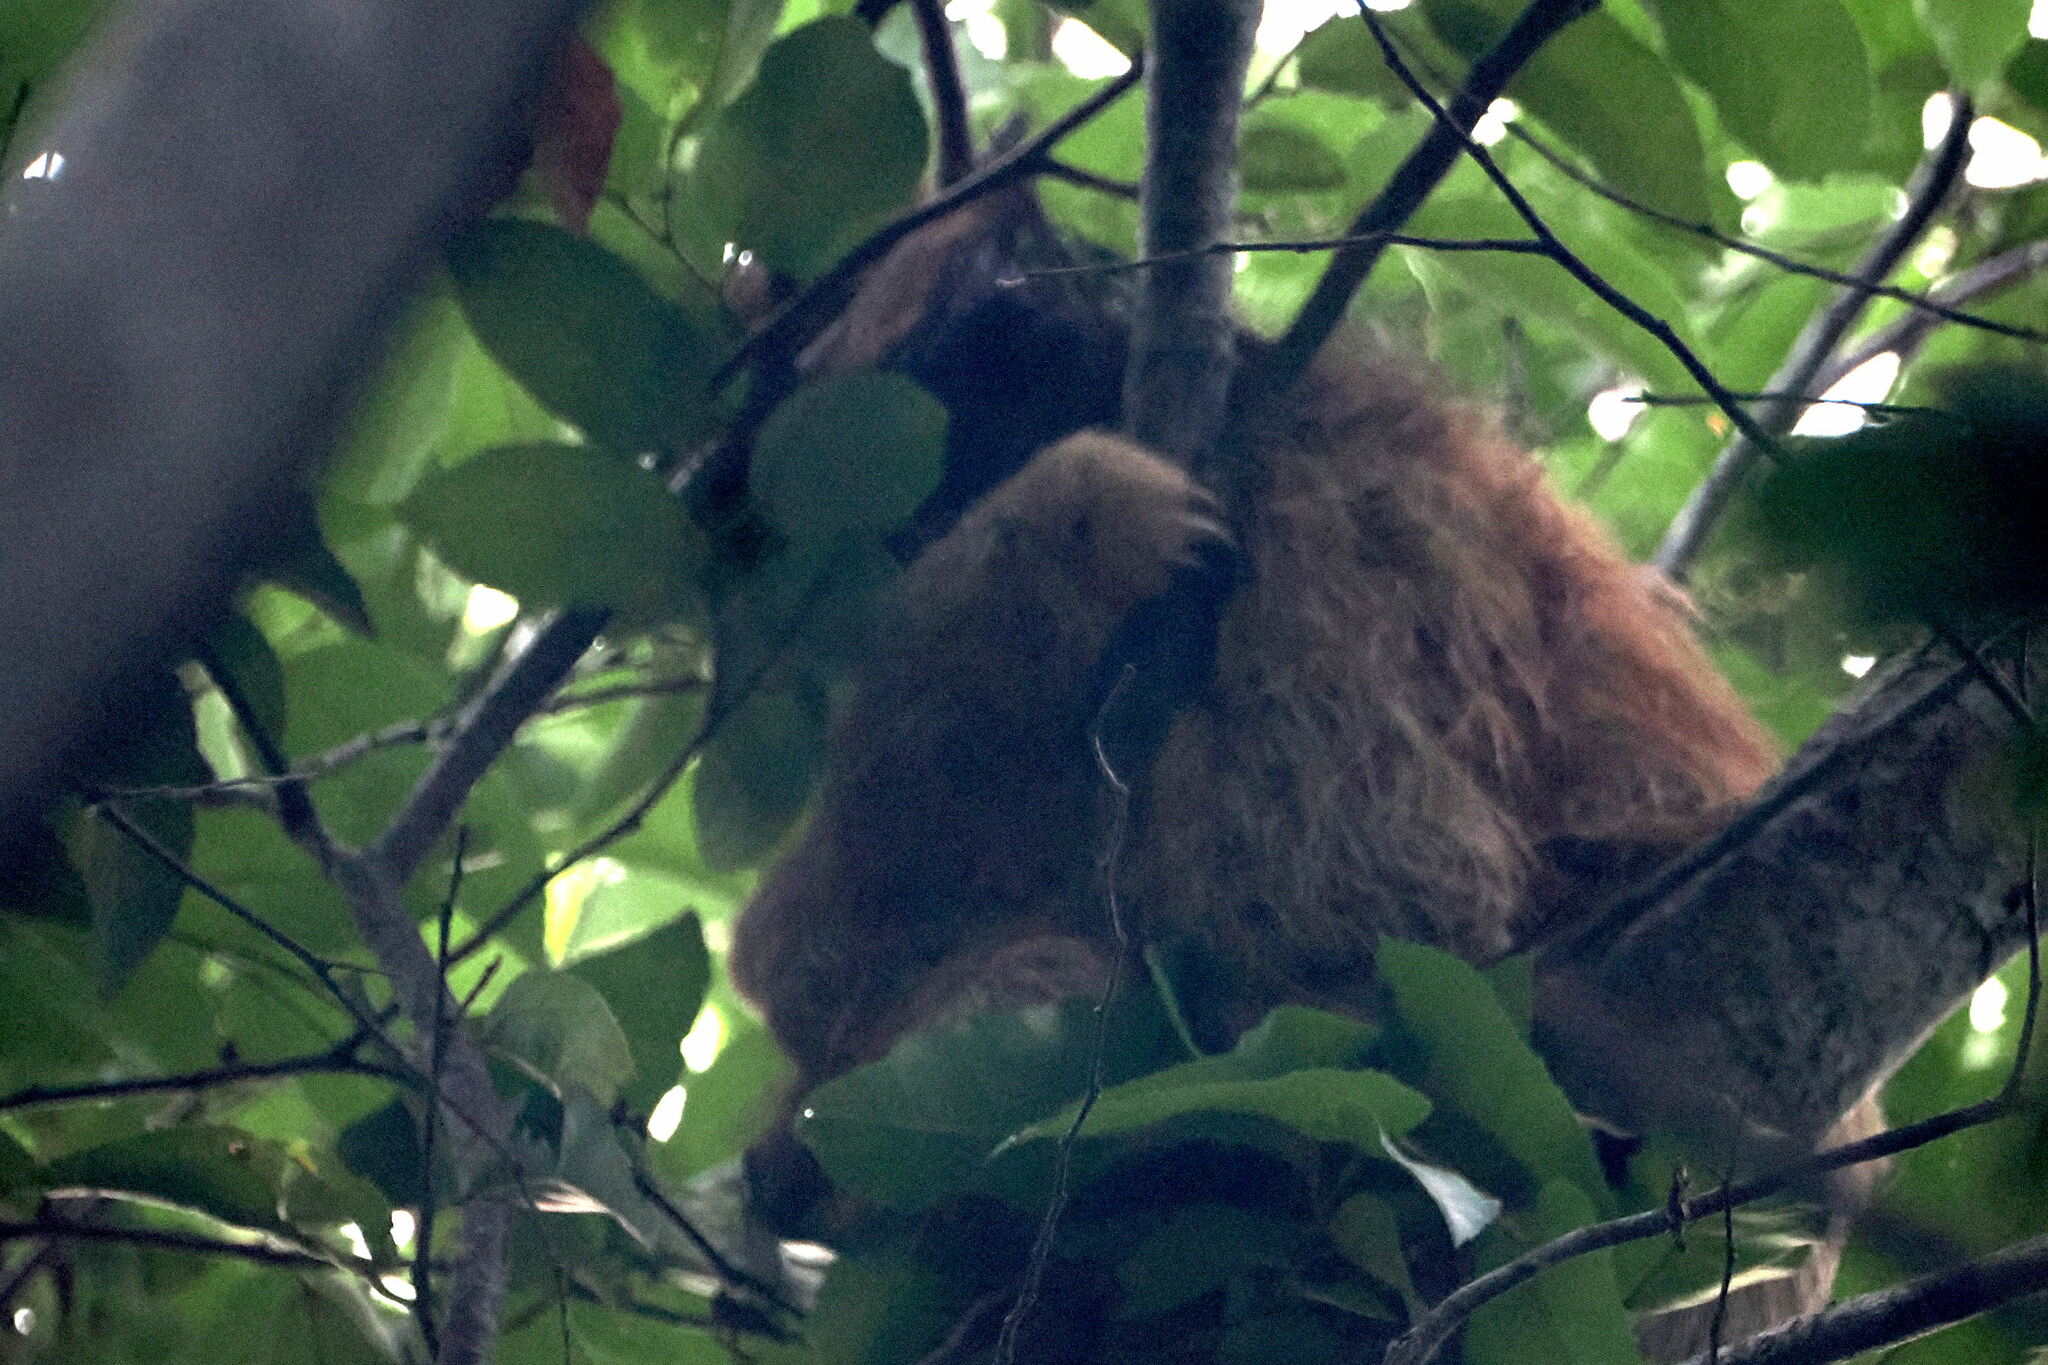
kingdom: Animalia
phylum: Chordata
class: Mammalia
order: Pilosa
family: Bradypodidae
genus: Bradypus
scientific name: Bradypus torquatus
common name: Maned sloth
